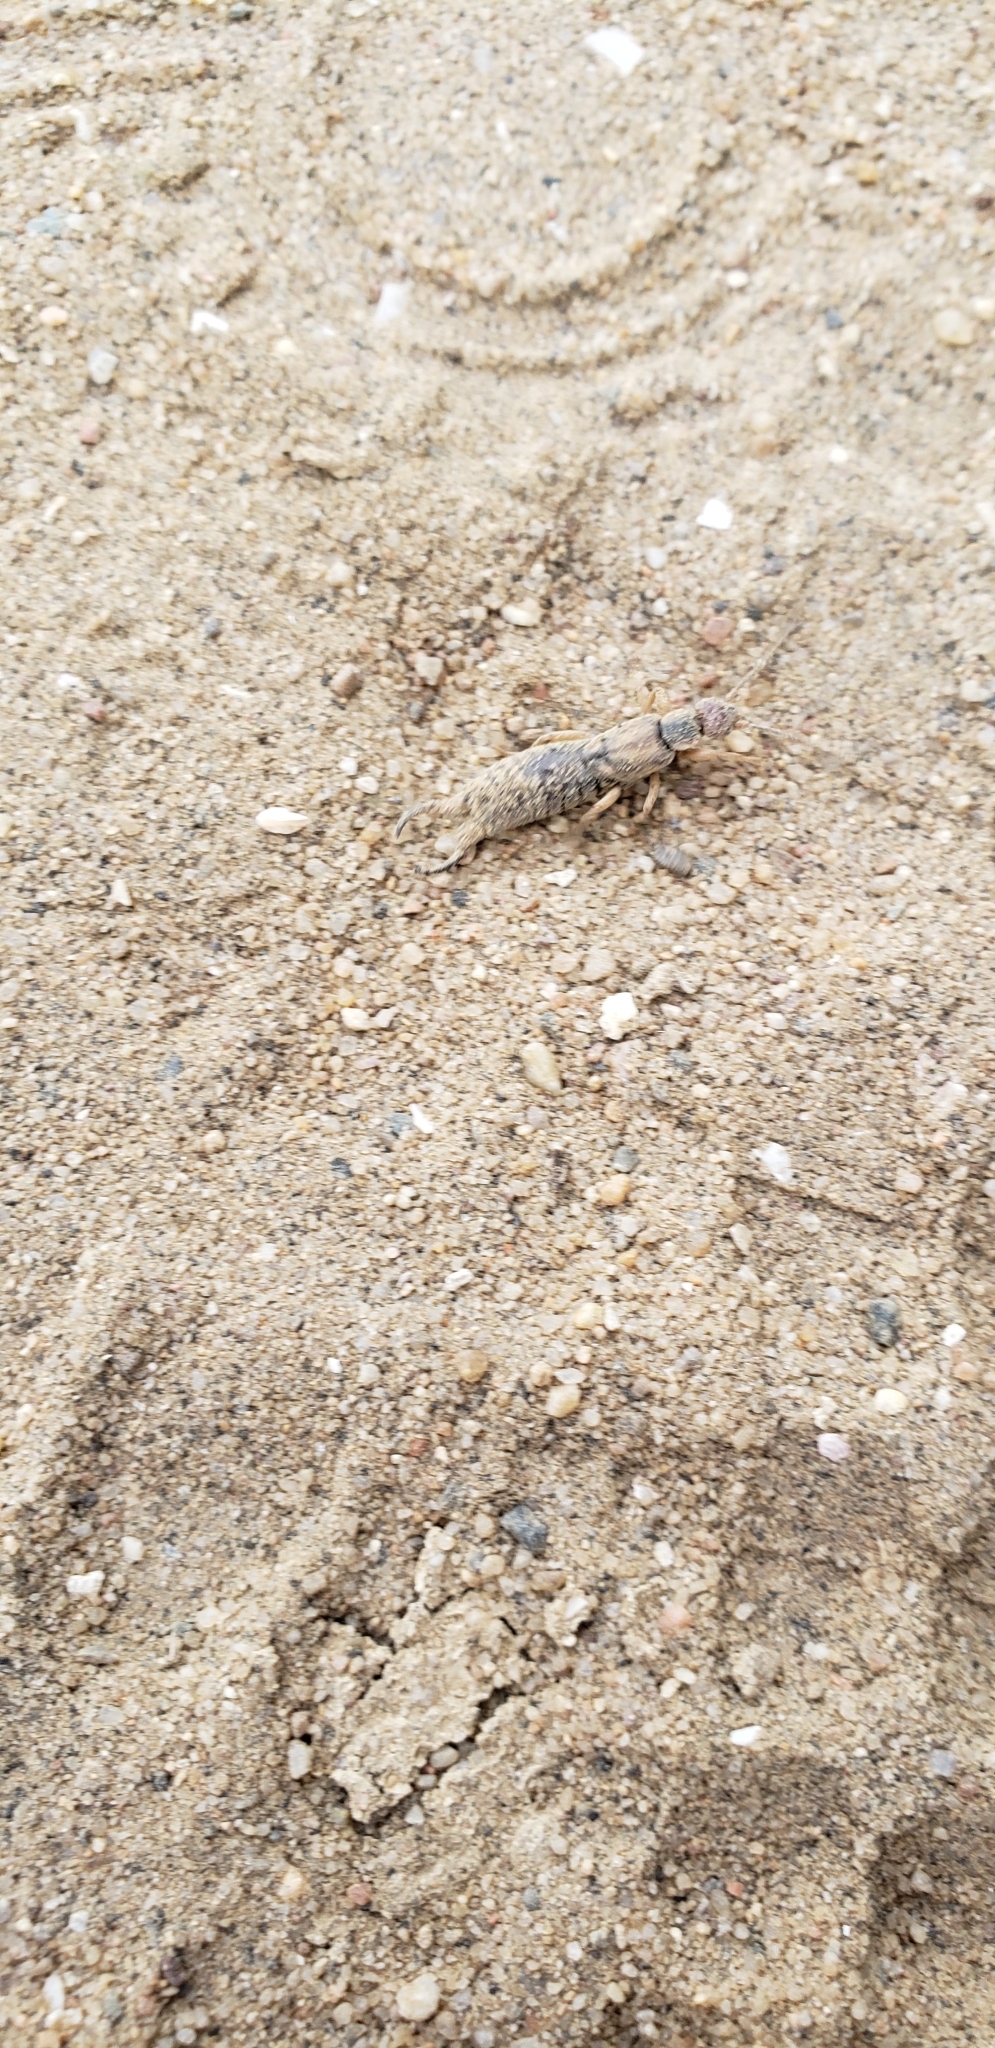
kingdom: Animalia
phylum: Arthropoda
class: Insecta
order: Dermaptera
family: Forficulidae
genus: Forficula
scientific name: Forficula
